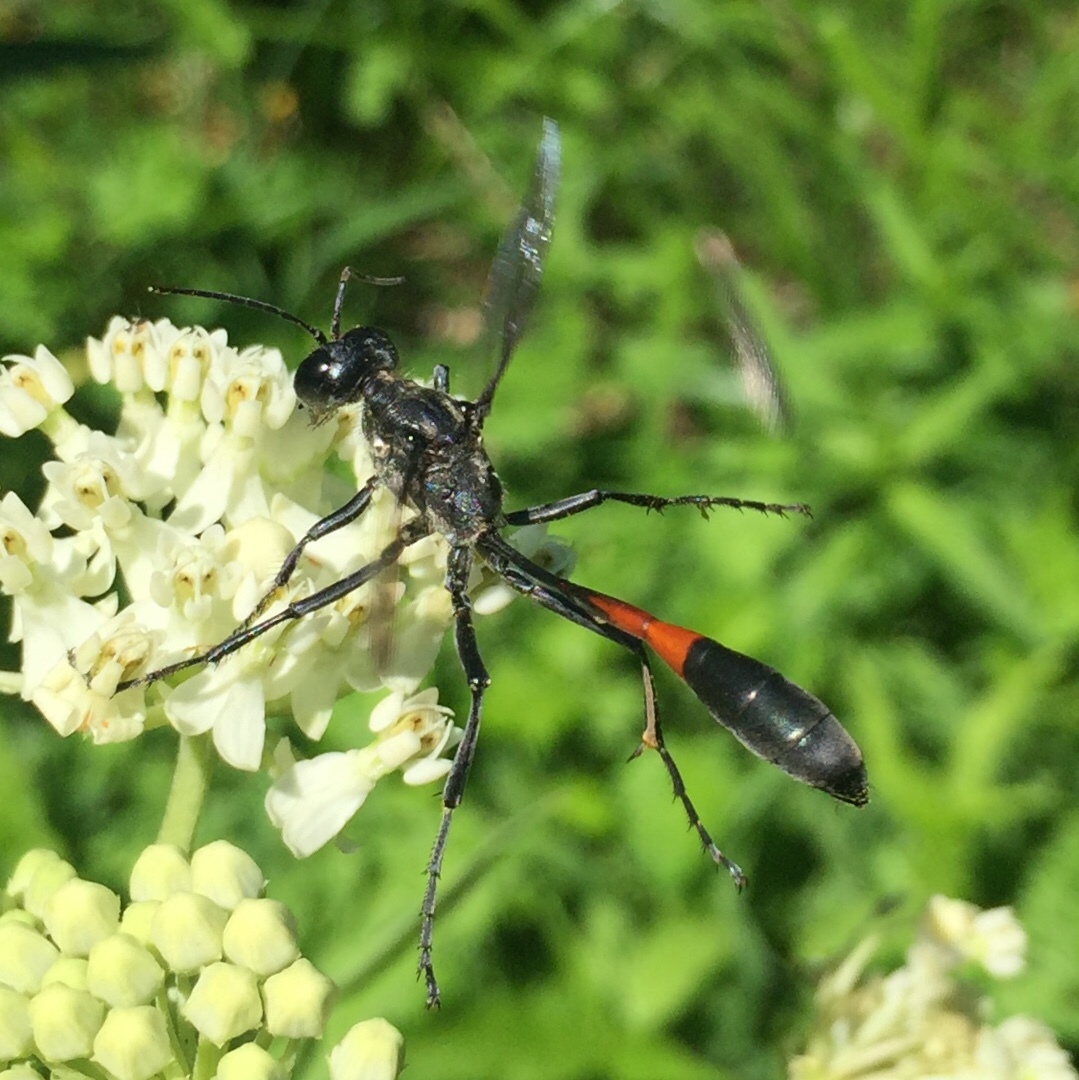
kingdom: Animalia
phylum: Arthropoda
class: Insecta
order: Hymenoptera
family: Sphecidae
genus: Ammophila
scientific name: Ammophila procera
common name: Common thread-waisted wasp
